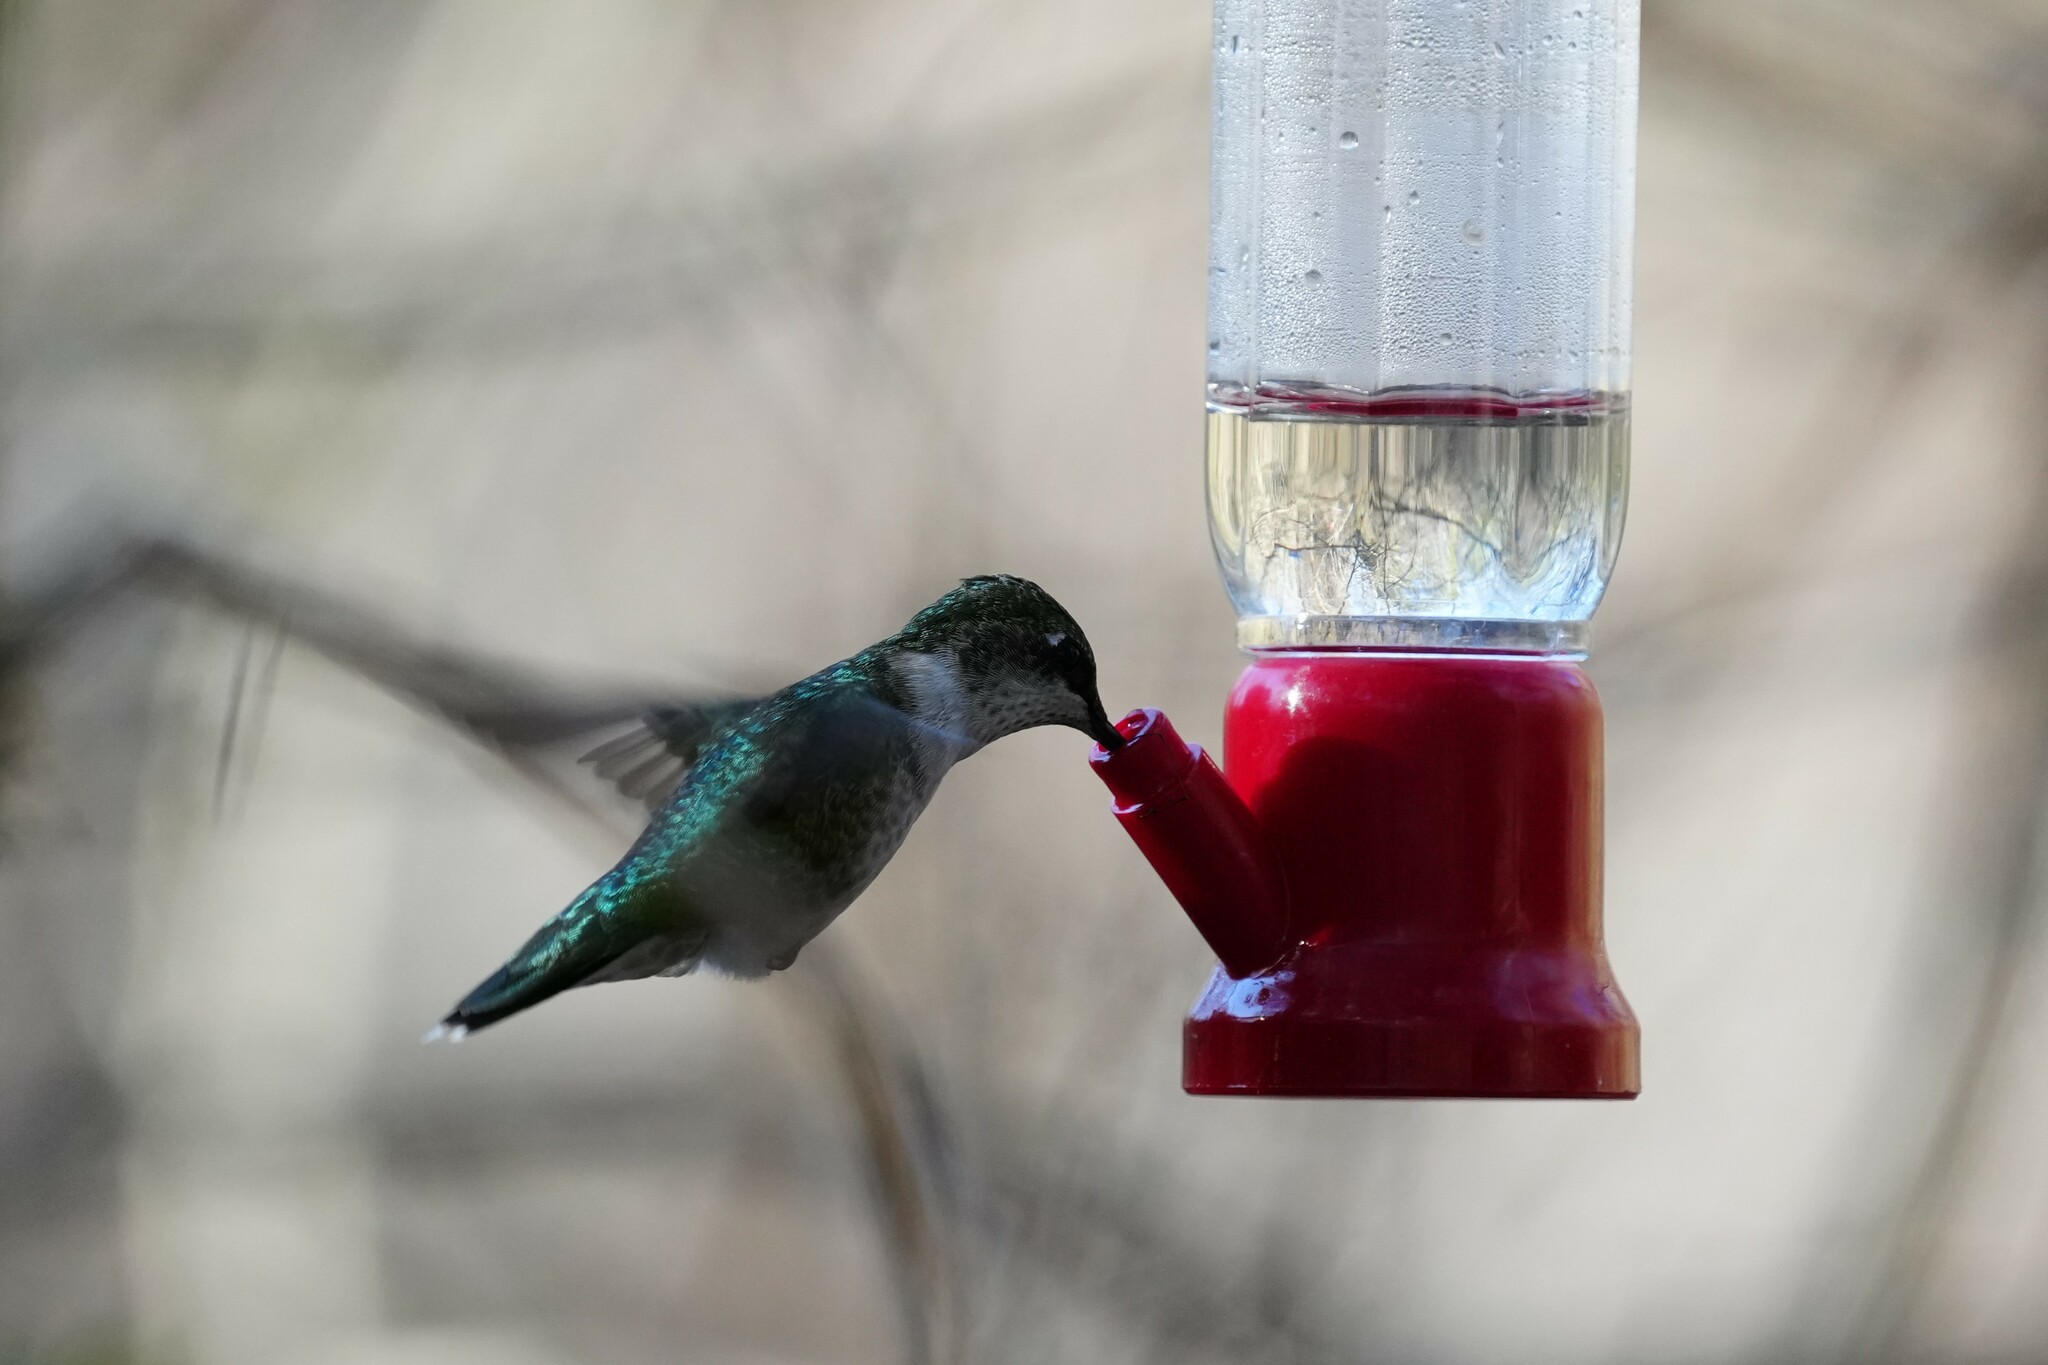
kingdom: Animalia
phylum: Chordata
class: Aves
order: Apodiformes
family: Trochilidae
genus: Archilochus
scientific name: Archilochus colubris
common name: Ruby-throated hummingbird
